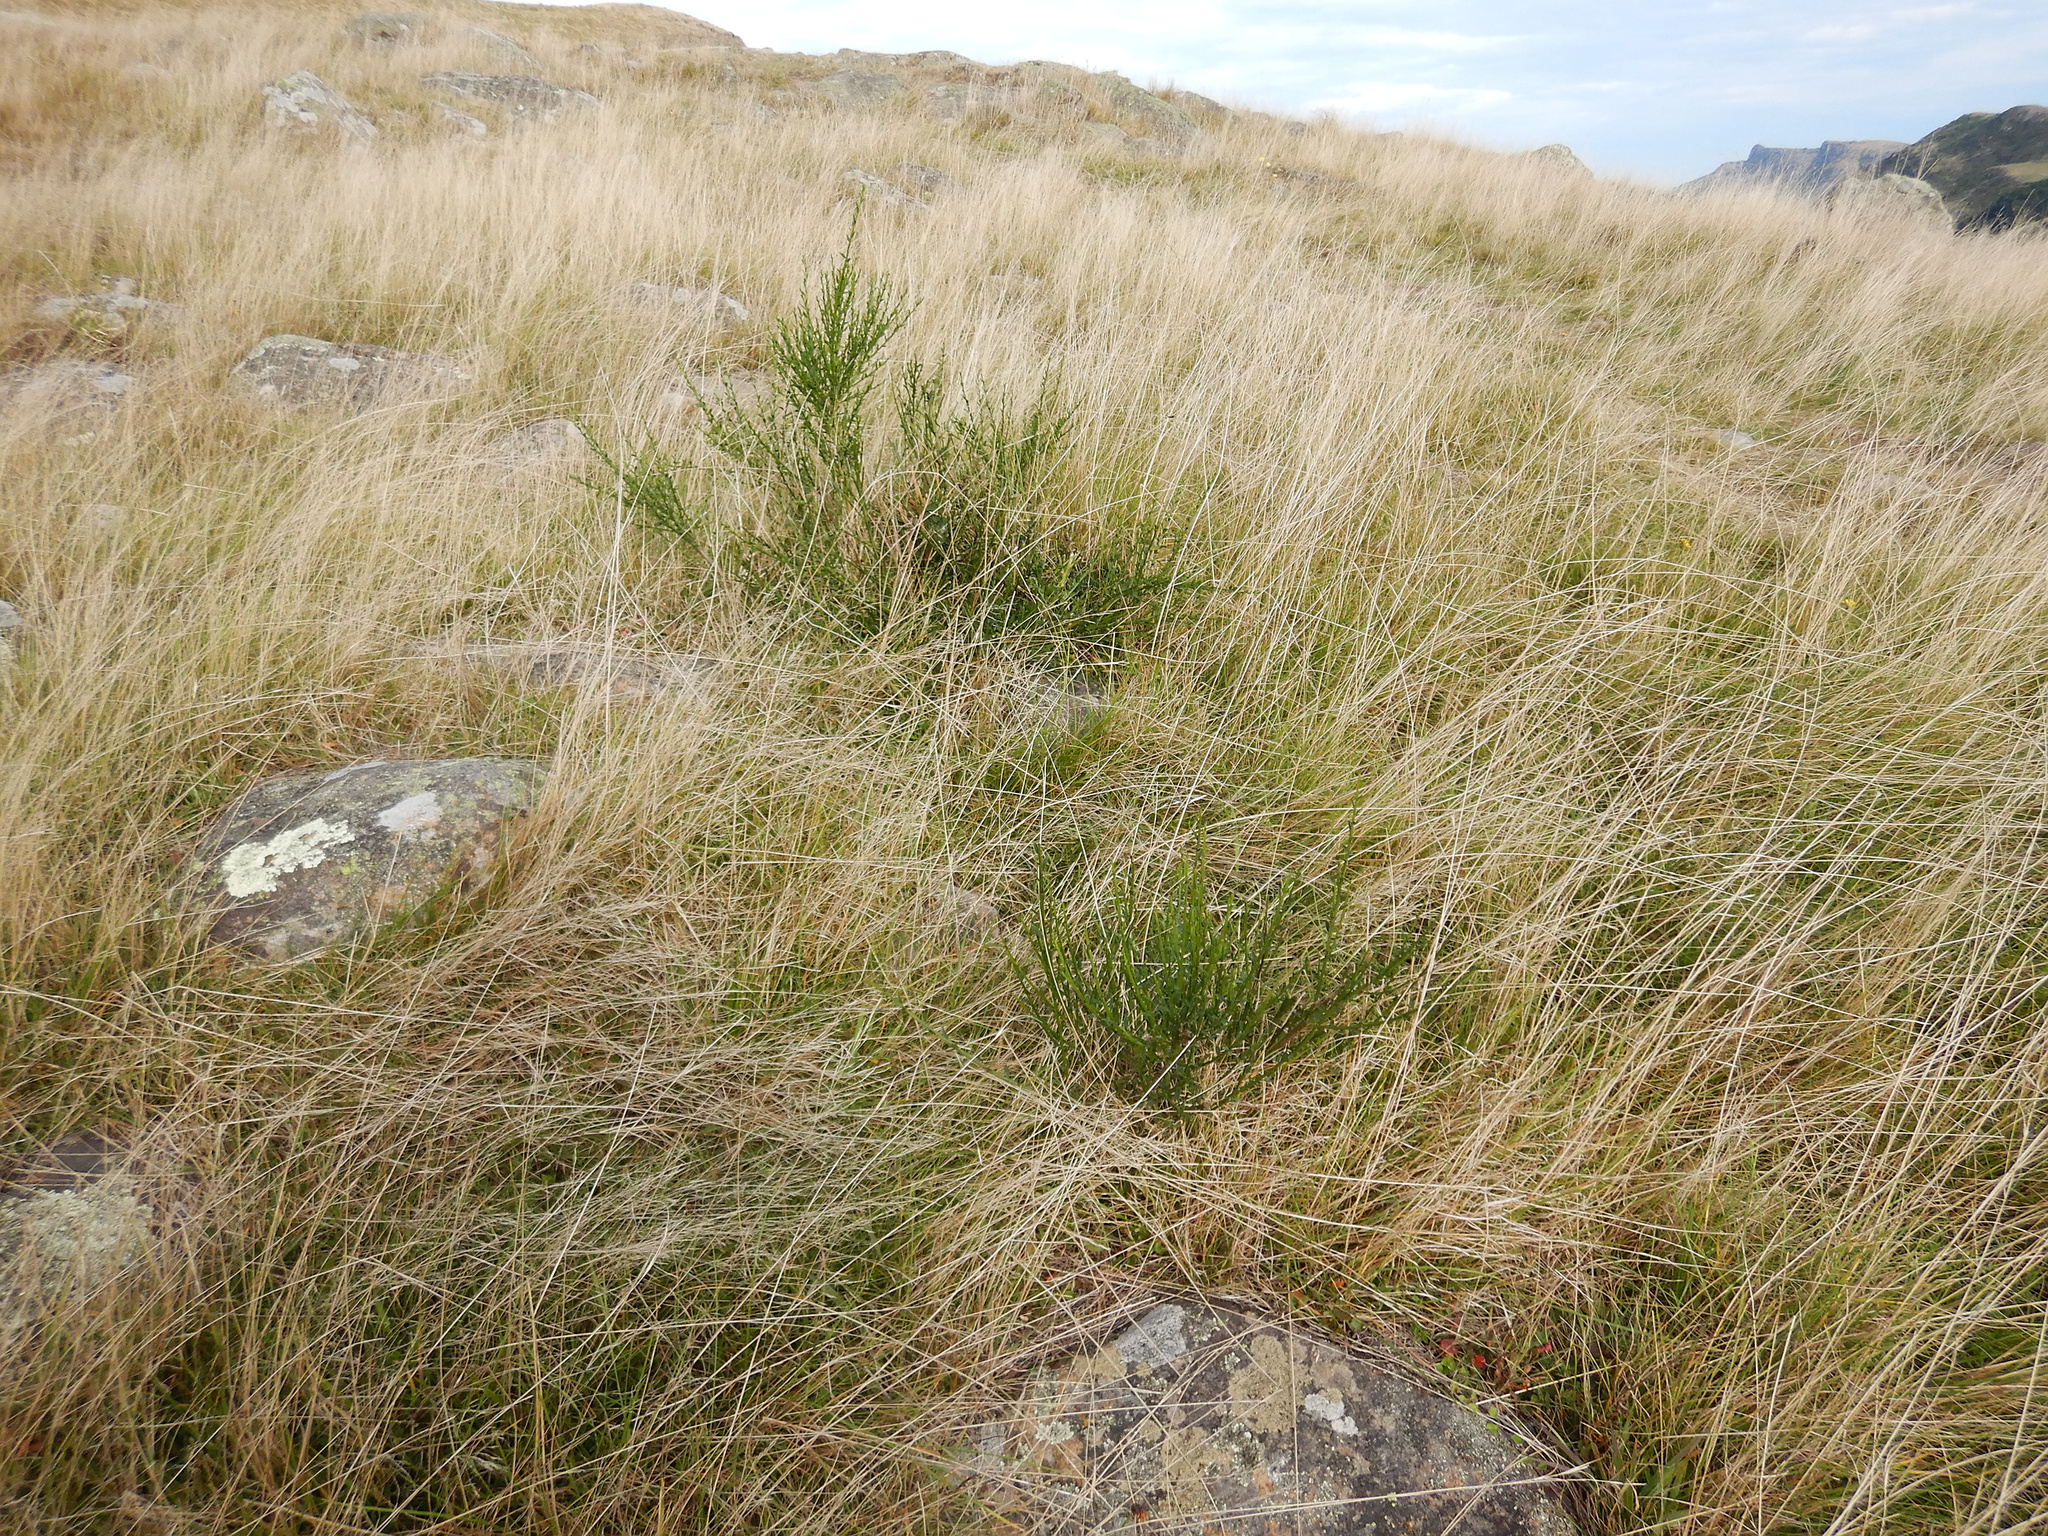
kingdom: Plantae
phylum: Tracheophyta
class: Magnoliopsida
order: Fabales
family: Fabaceae
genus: Cytisus
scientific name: Cytisus scoparius
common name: Scotch broom
